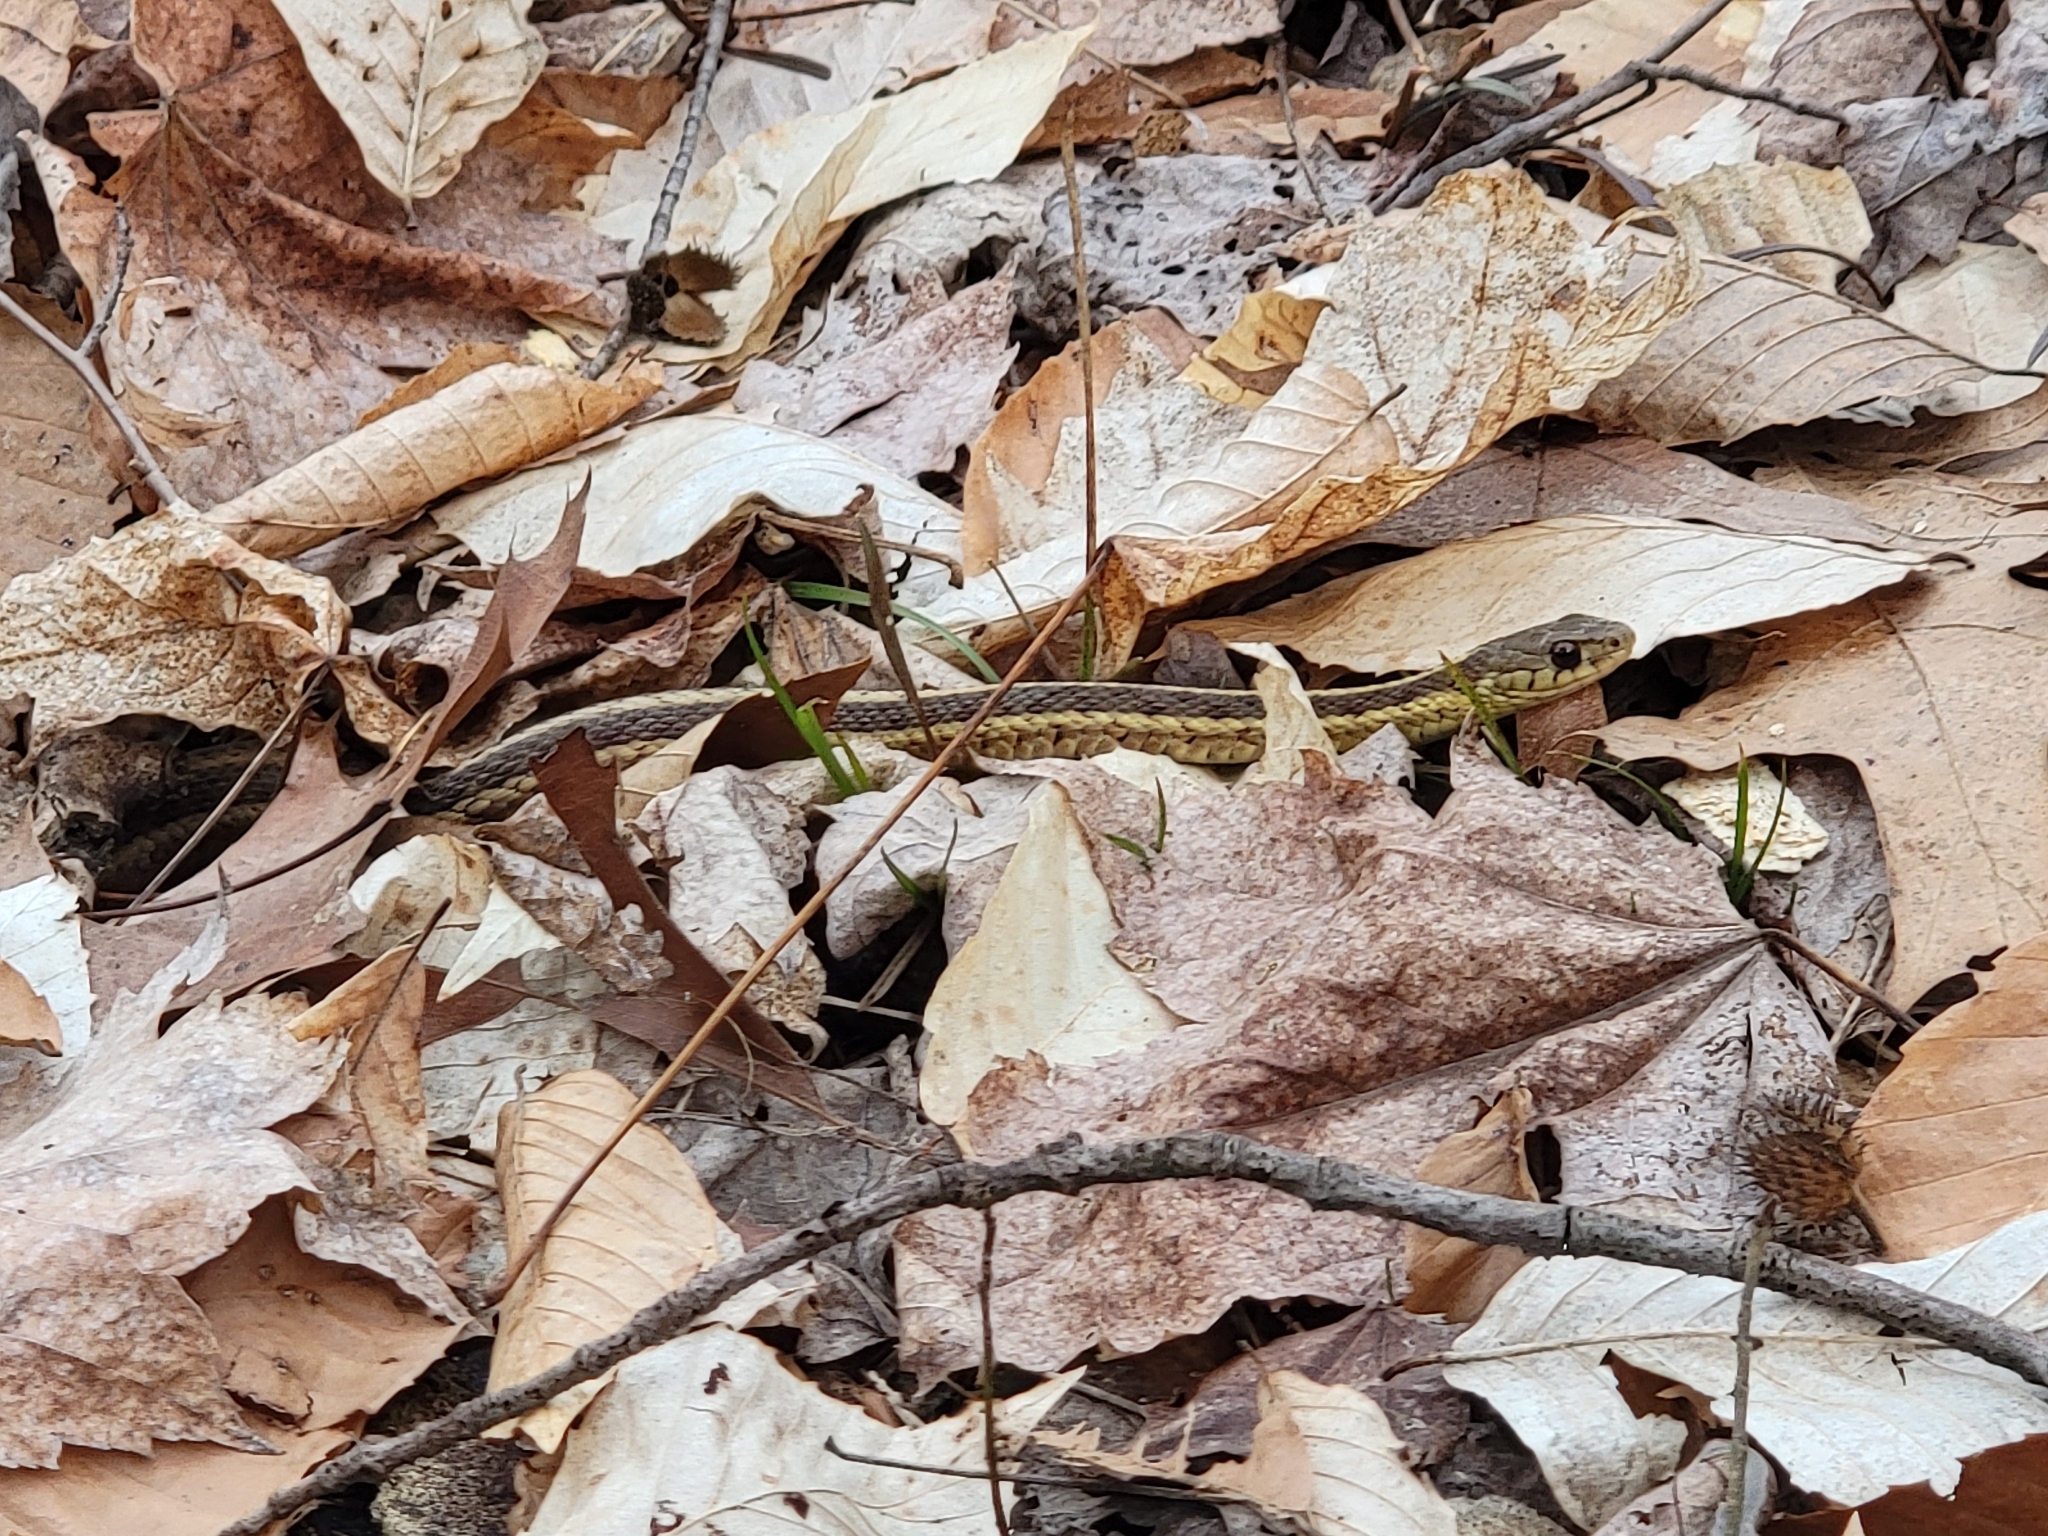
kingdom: Animalia
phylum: Chordata
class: Squamata
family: Colubridae
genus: Thamnophis
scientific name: Thamnophis sirtalis
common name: Common garter snake
